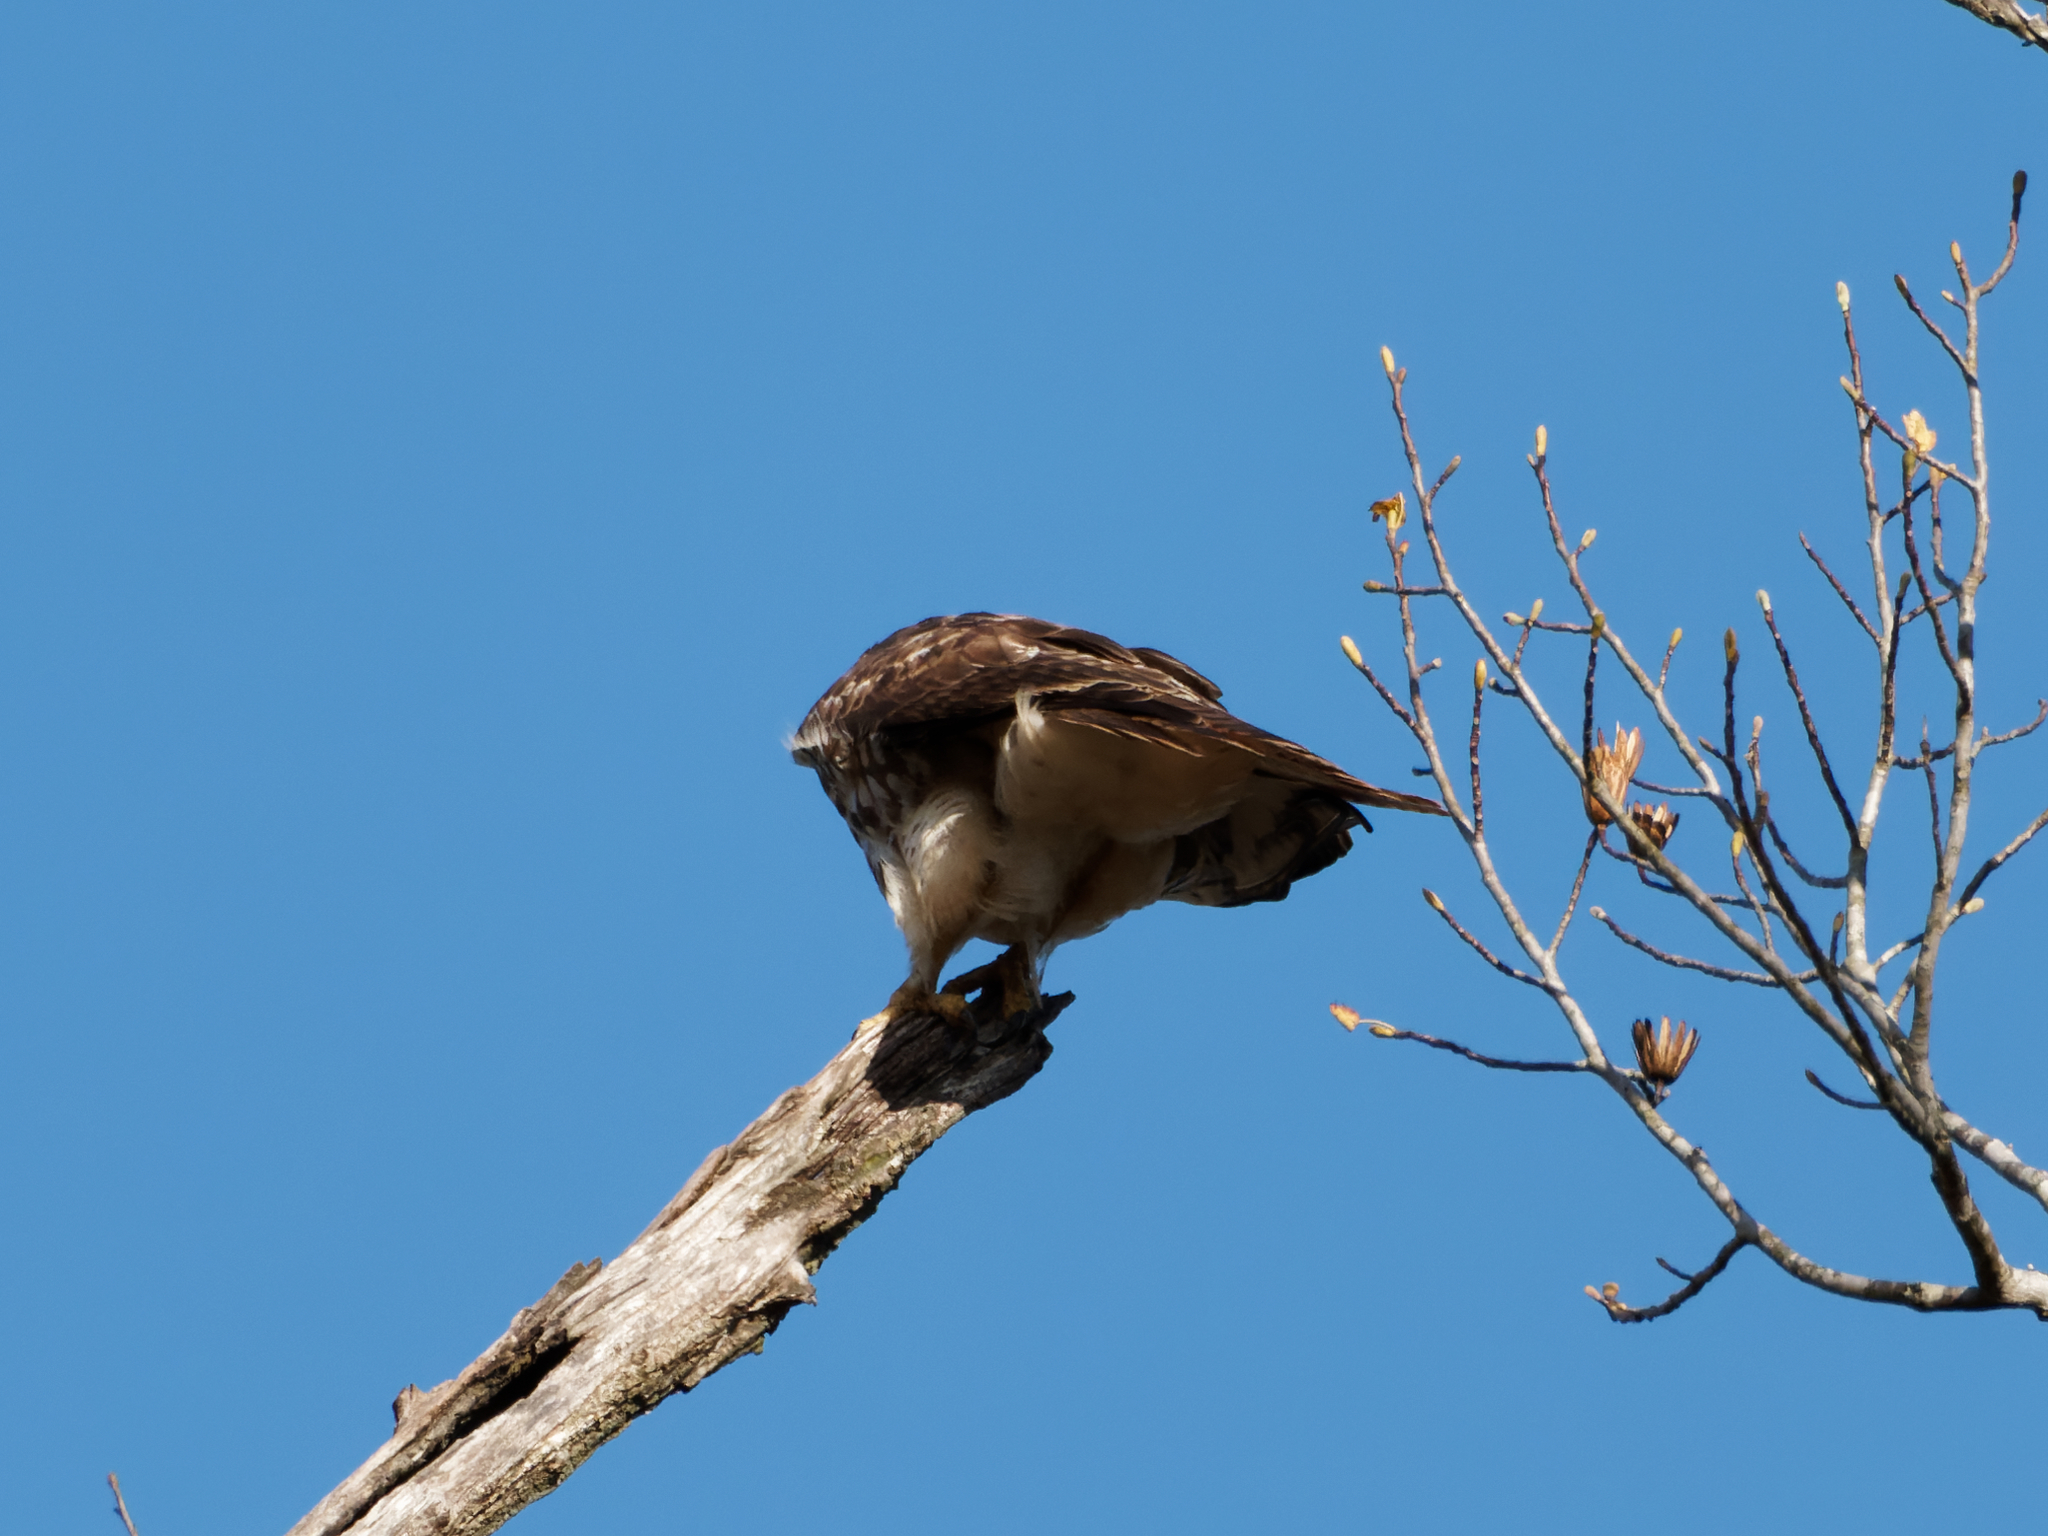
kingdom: Animalia
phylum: Chordata
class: Aves
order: Accipitriformes
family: Accipitridae
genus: Buteo
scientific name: Buteo jamaicensis
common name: Red-tailed hawk
